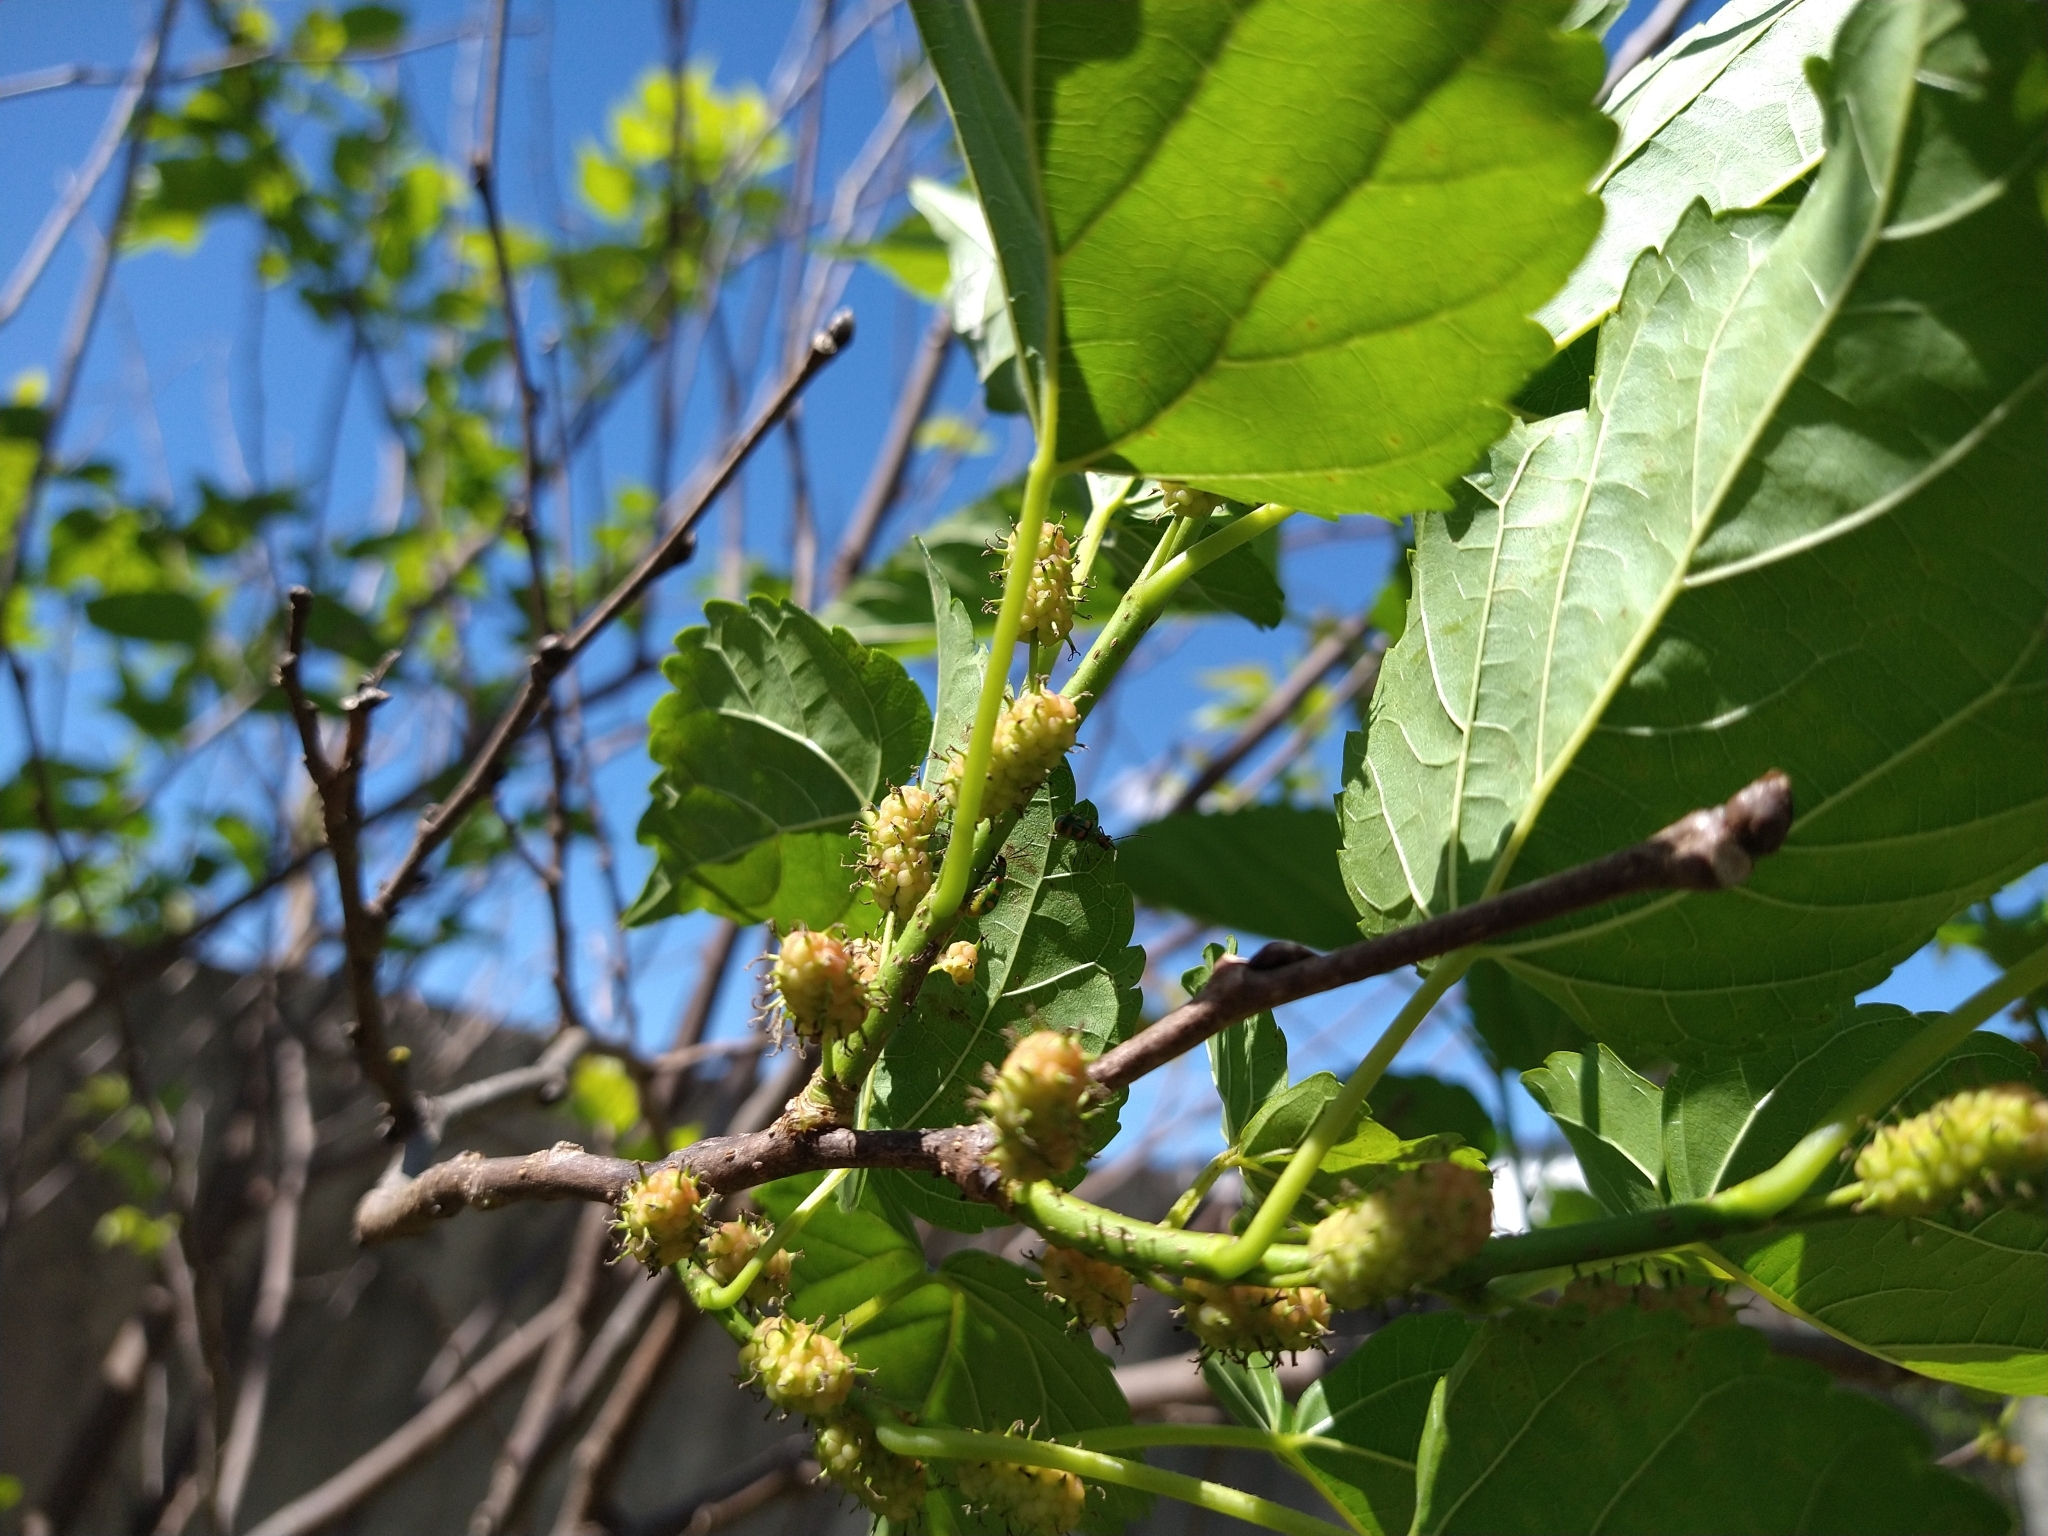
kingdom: Animalia
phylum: Arthropoda
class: Insecta
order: Coleoptera
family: Chrysomelidae
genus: Diabrotica
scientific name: Diabrotica speciosa
